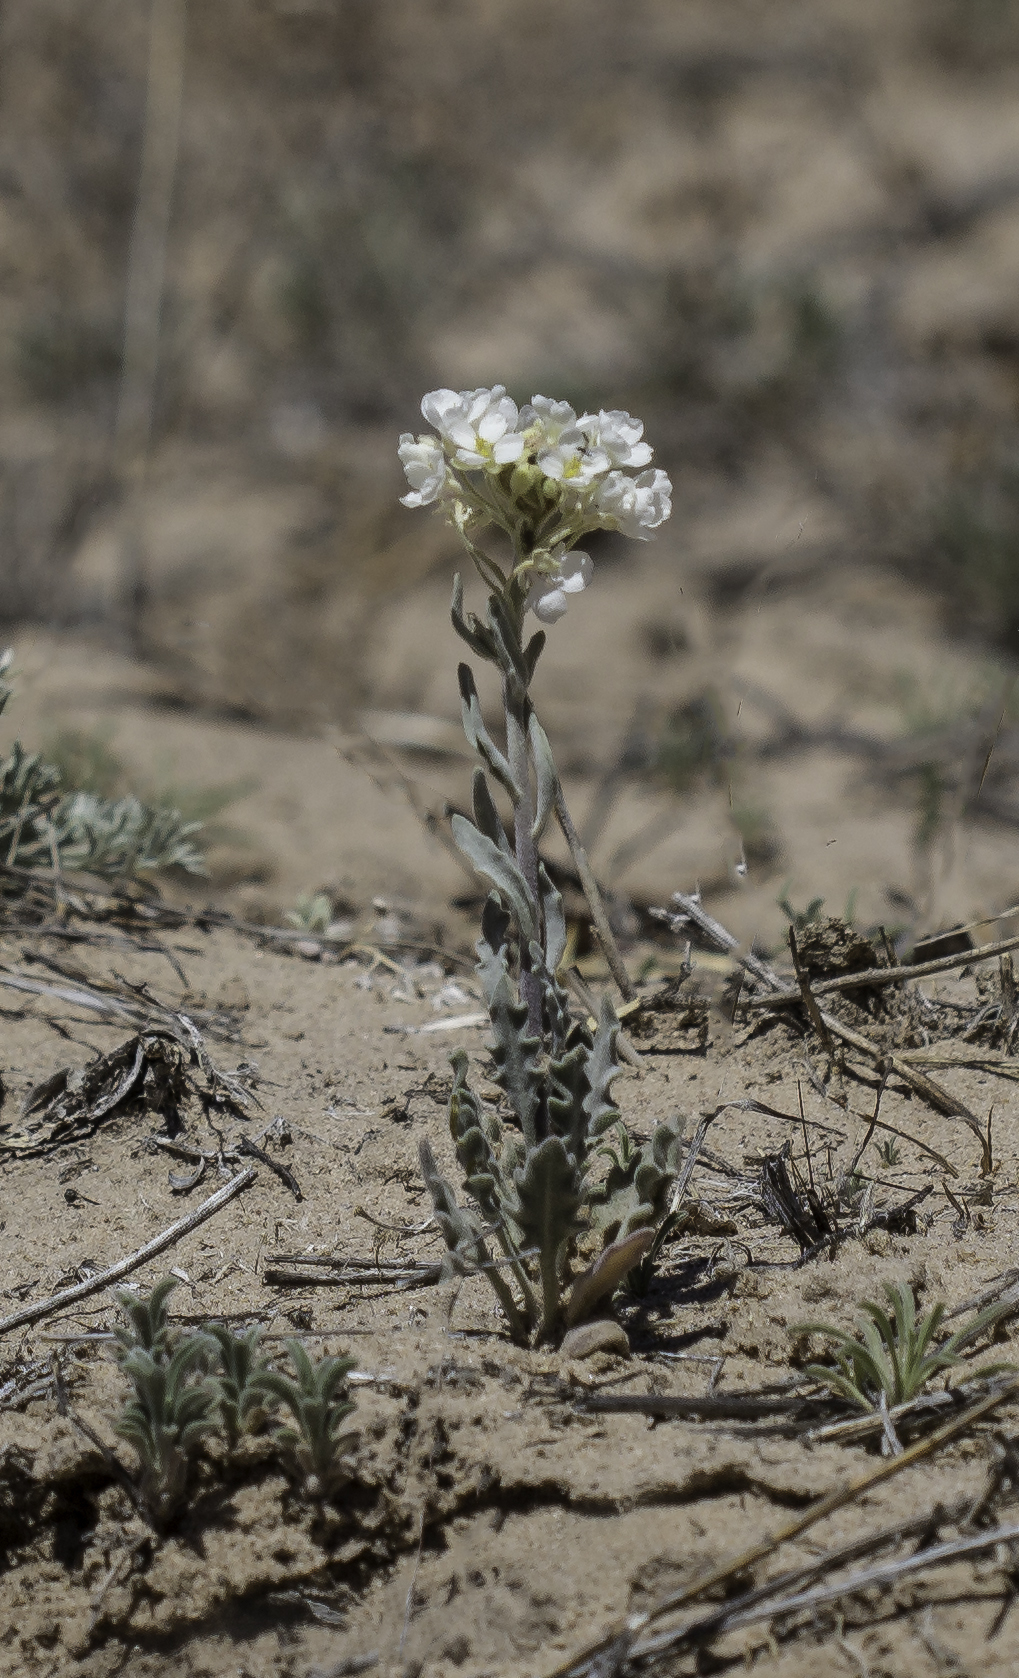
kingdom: Plantae
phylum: Tracheophyta
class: Magnoliopsida
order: Brassicales
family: Brassicaceae
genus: Dimorphocarpa
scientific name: Dimorphocarpa wislizenii
